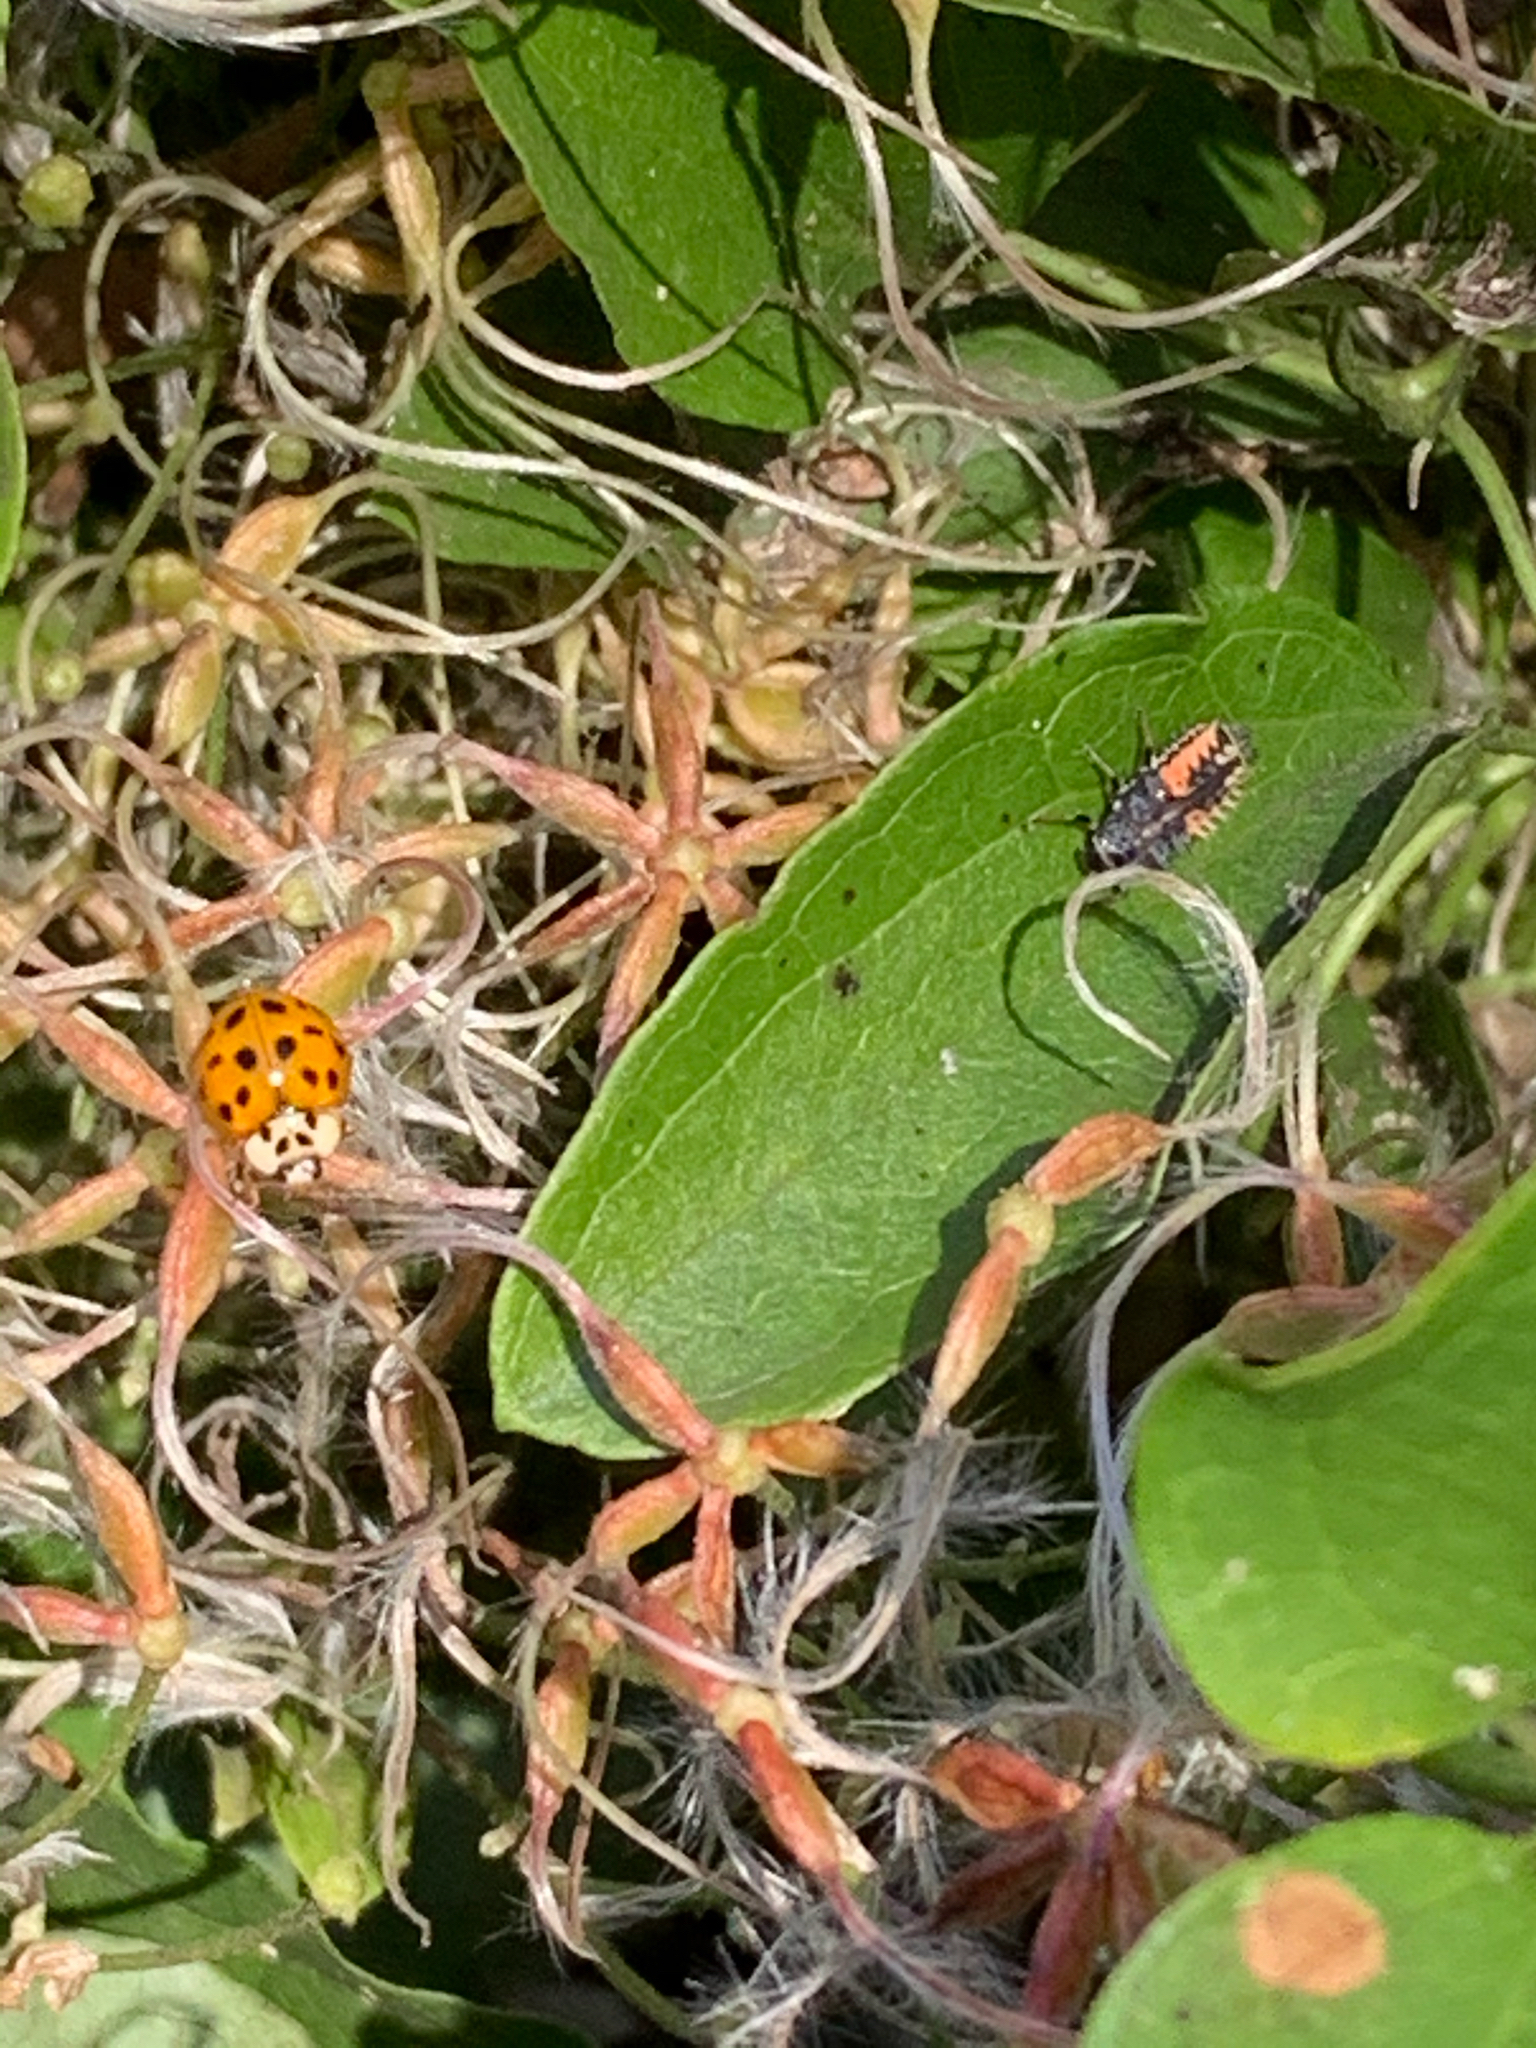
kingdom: Animalia
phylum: Arthropoda
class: Insecta
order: Coleoptera
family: Coccinellidae
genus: Harmonia
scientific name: Harmonia axyridis
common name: Harlequin ladybird
